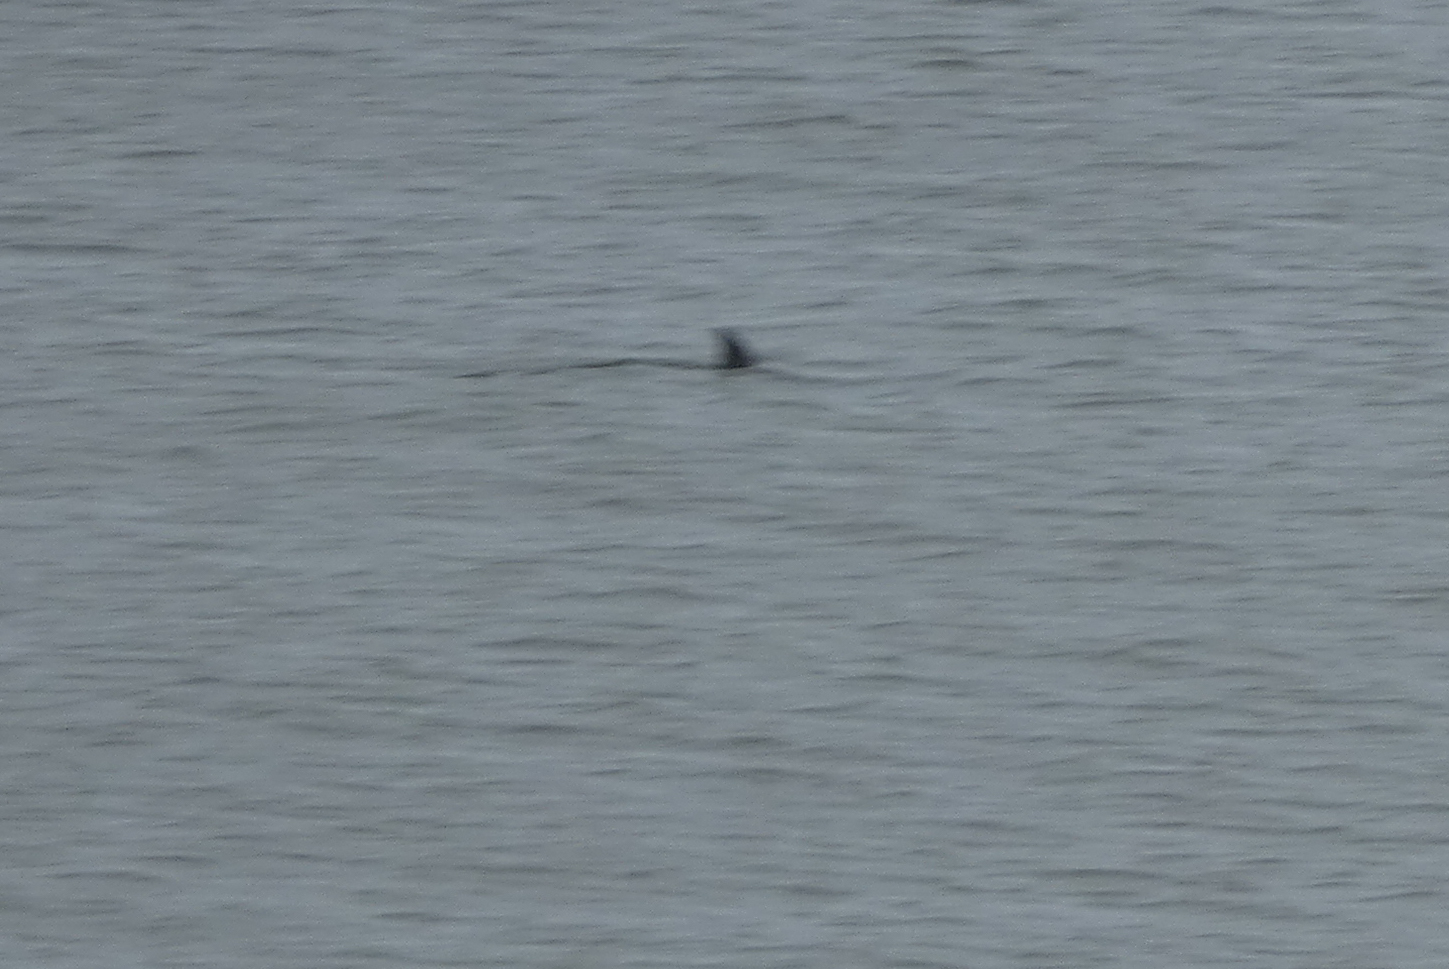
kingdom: Animalia
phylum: Chordata
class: Mammalia
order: Cetacea
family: Delphinidae
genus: Tursiops
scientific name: Tursiops truncatus
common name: Bottlenose dolphin
